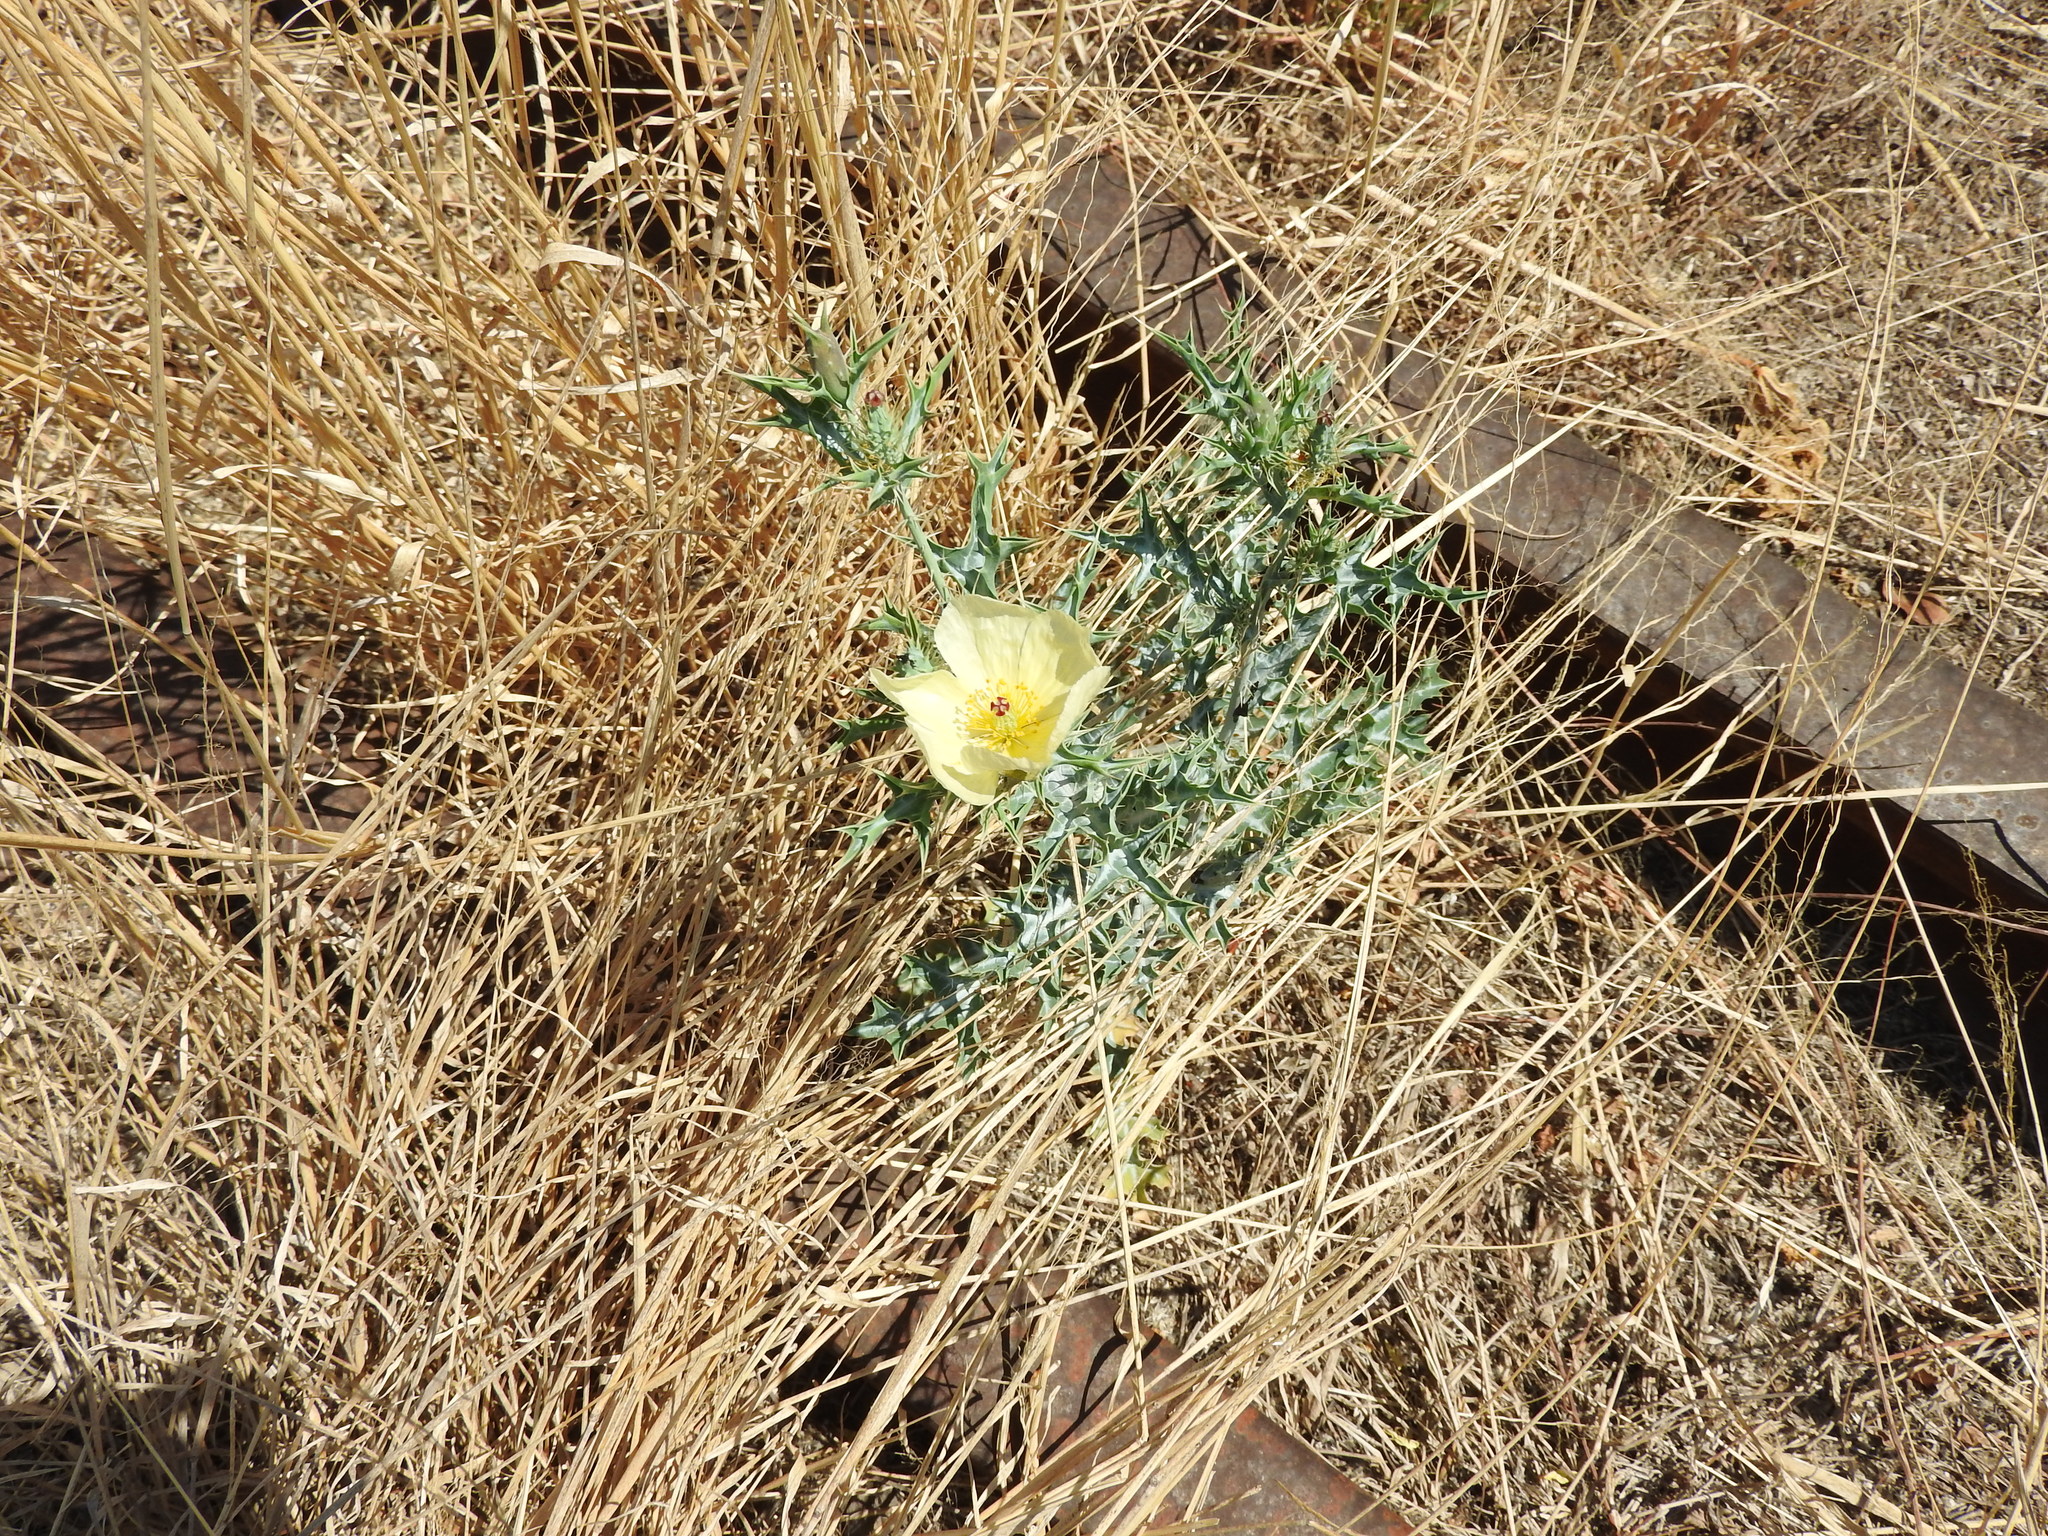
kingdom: Plantae
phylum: Tracheophyta
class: Magnoliopsida
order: Ranunculales
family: Papaveraceae
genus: Argemone
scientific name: Argemone ochroleuca
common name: White-flower mexican-poppy
